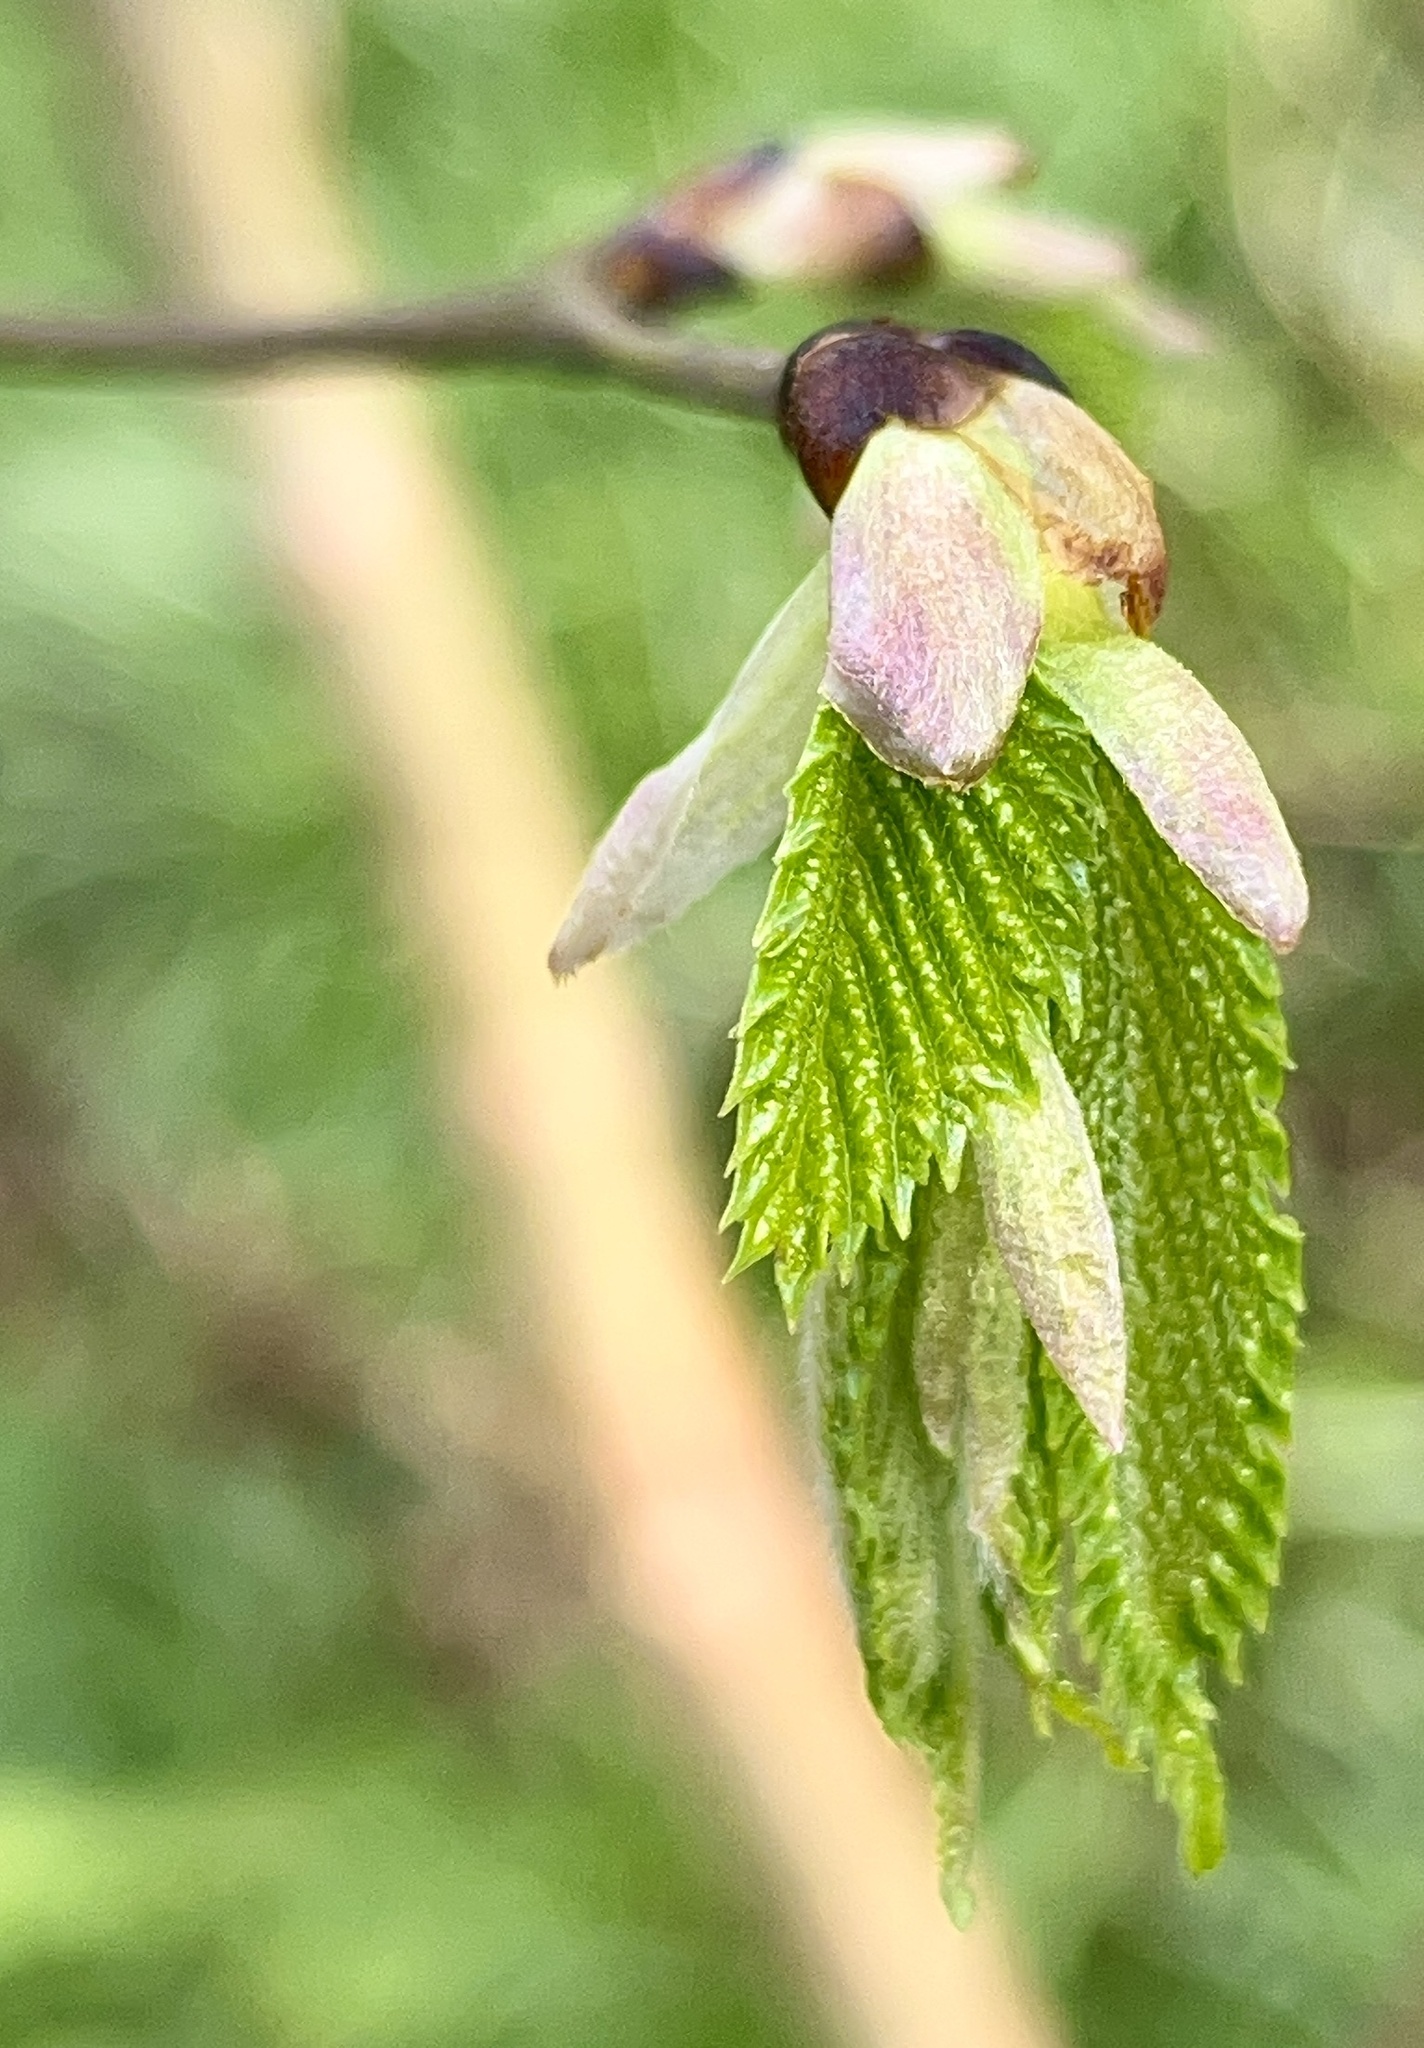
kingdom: Plantae
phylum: Tracheophyta
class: Magnoliopsida
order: Fagales
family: Betulaceae
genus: Carpinus
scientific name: Carpinus betulus
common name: Hornbeam
